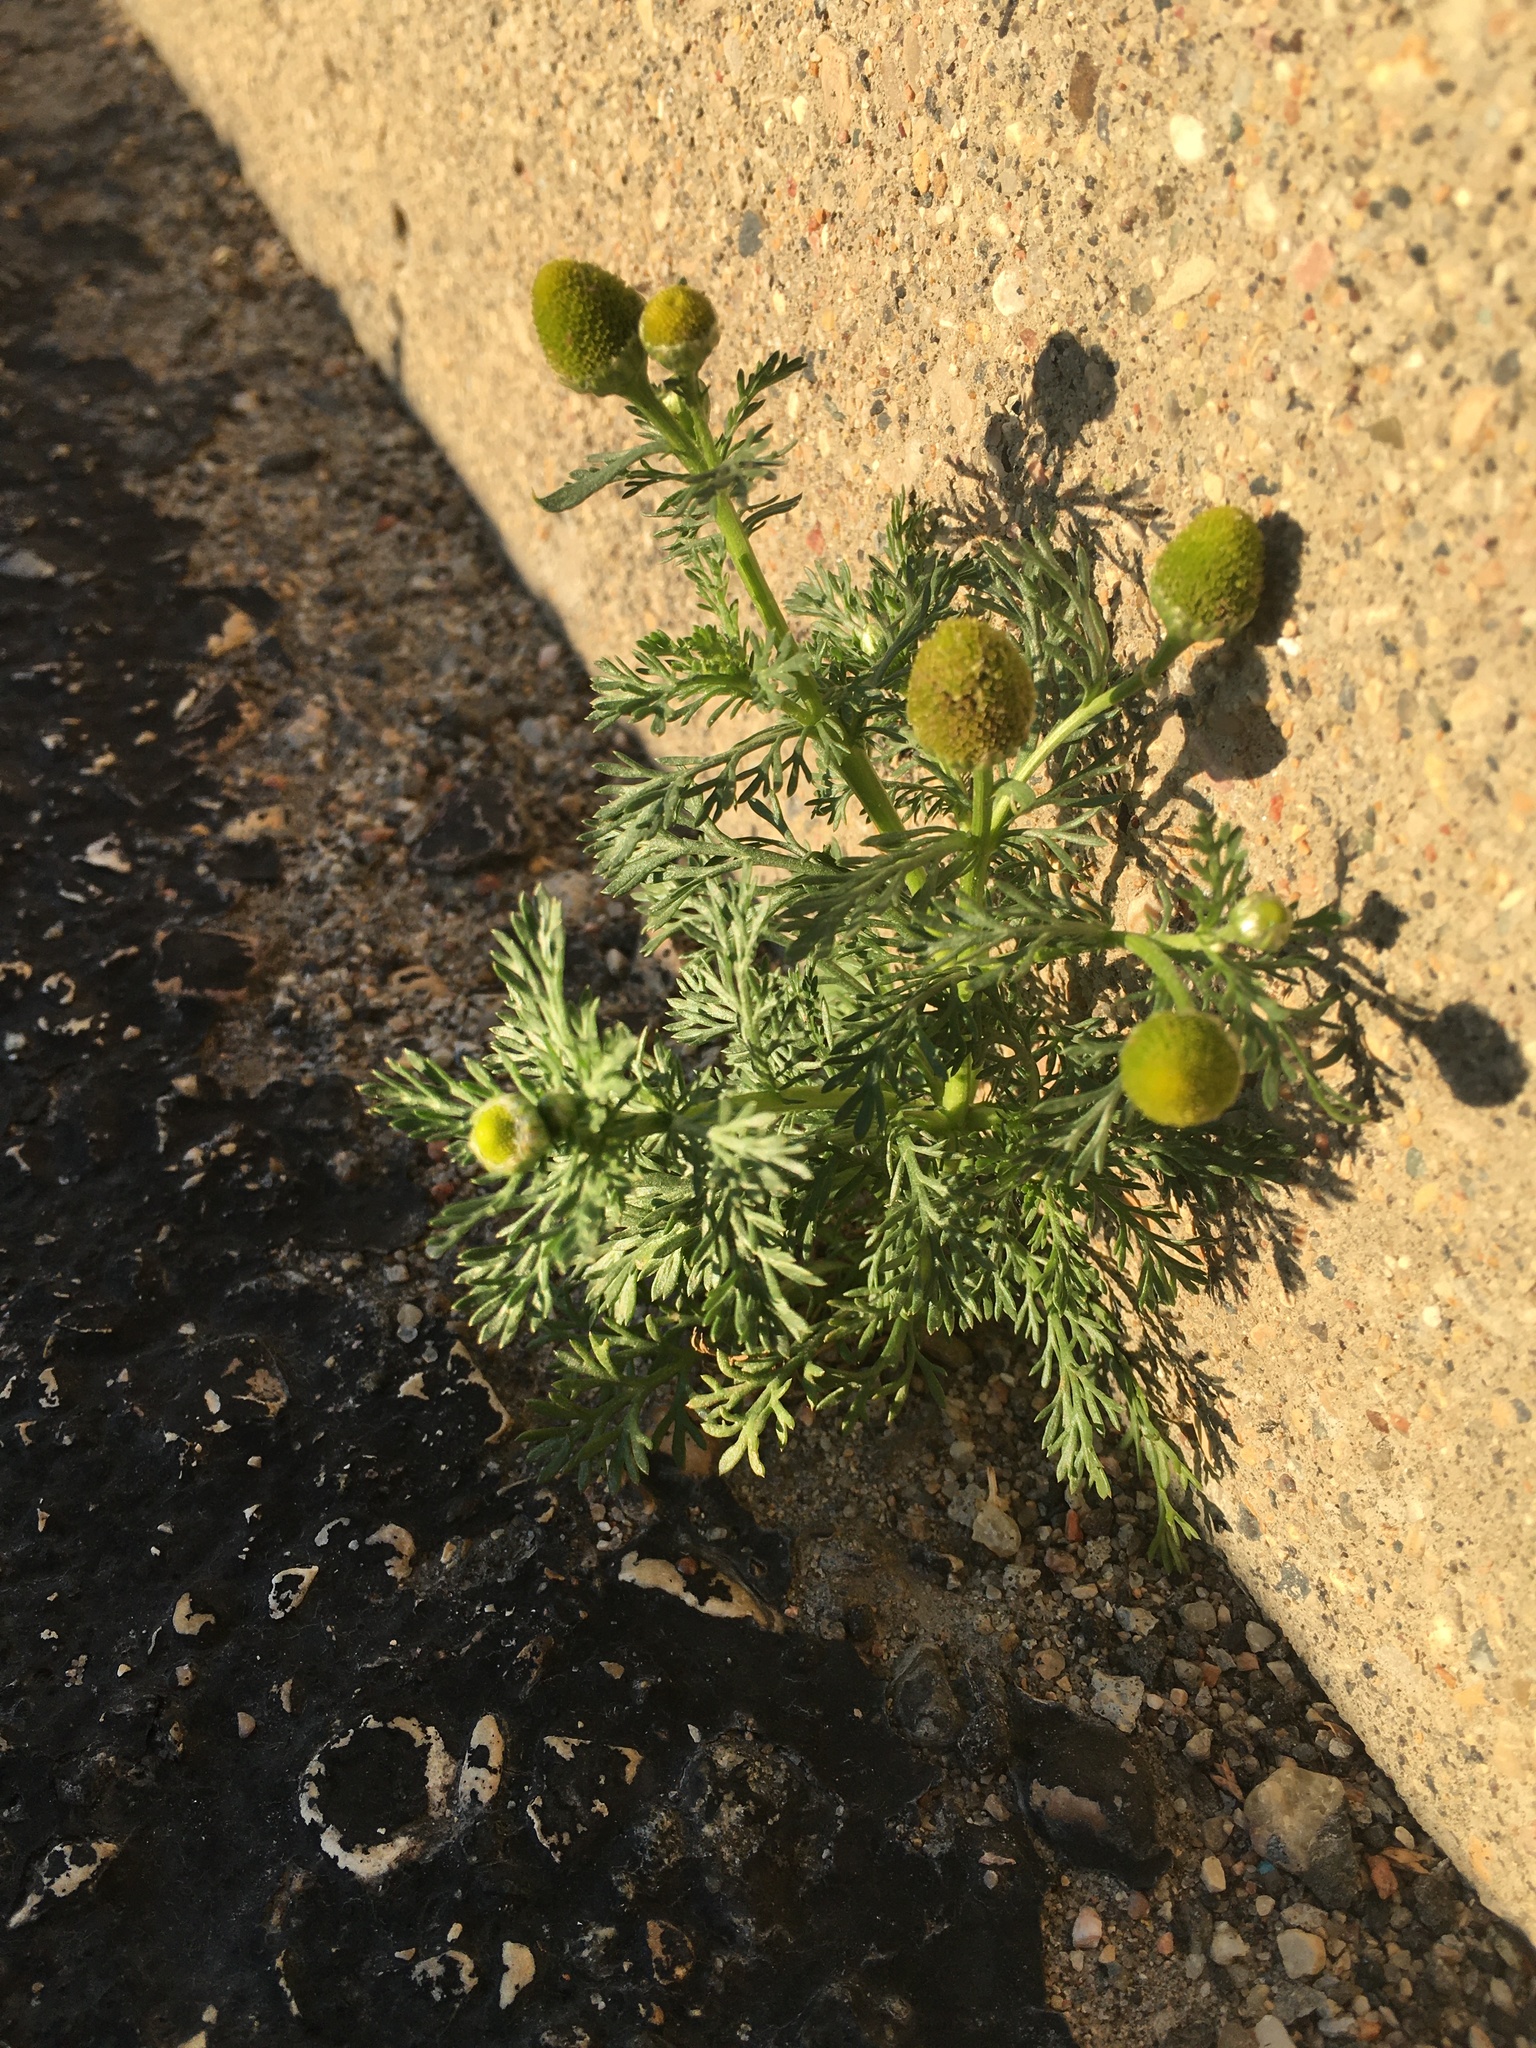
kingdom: Plantae
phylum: Tracheophyta
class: Magnoliopsida
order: Asterales
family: Asteraceae
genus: Matricaria
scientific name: Matricaria discoidea
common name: Disc mayweed
